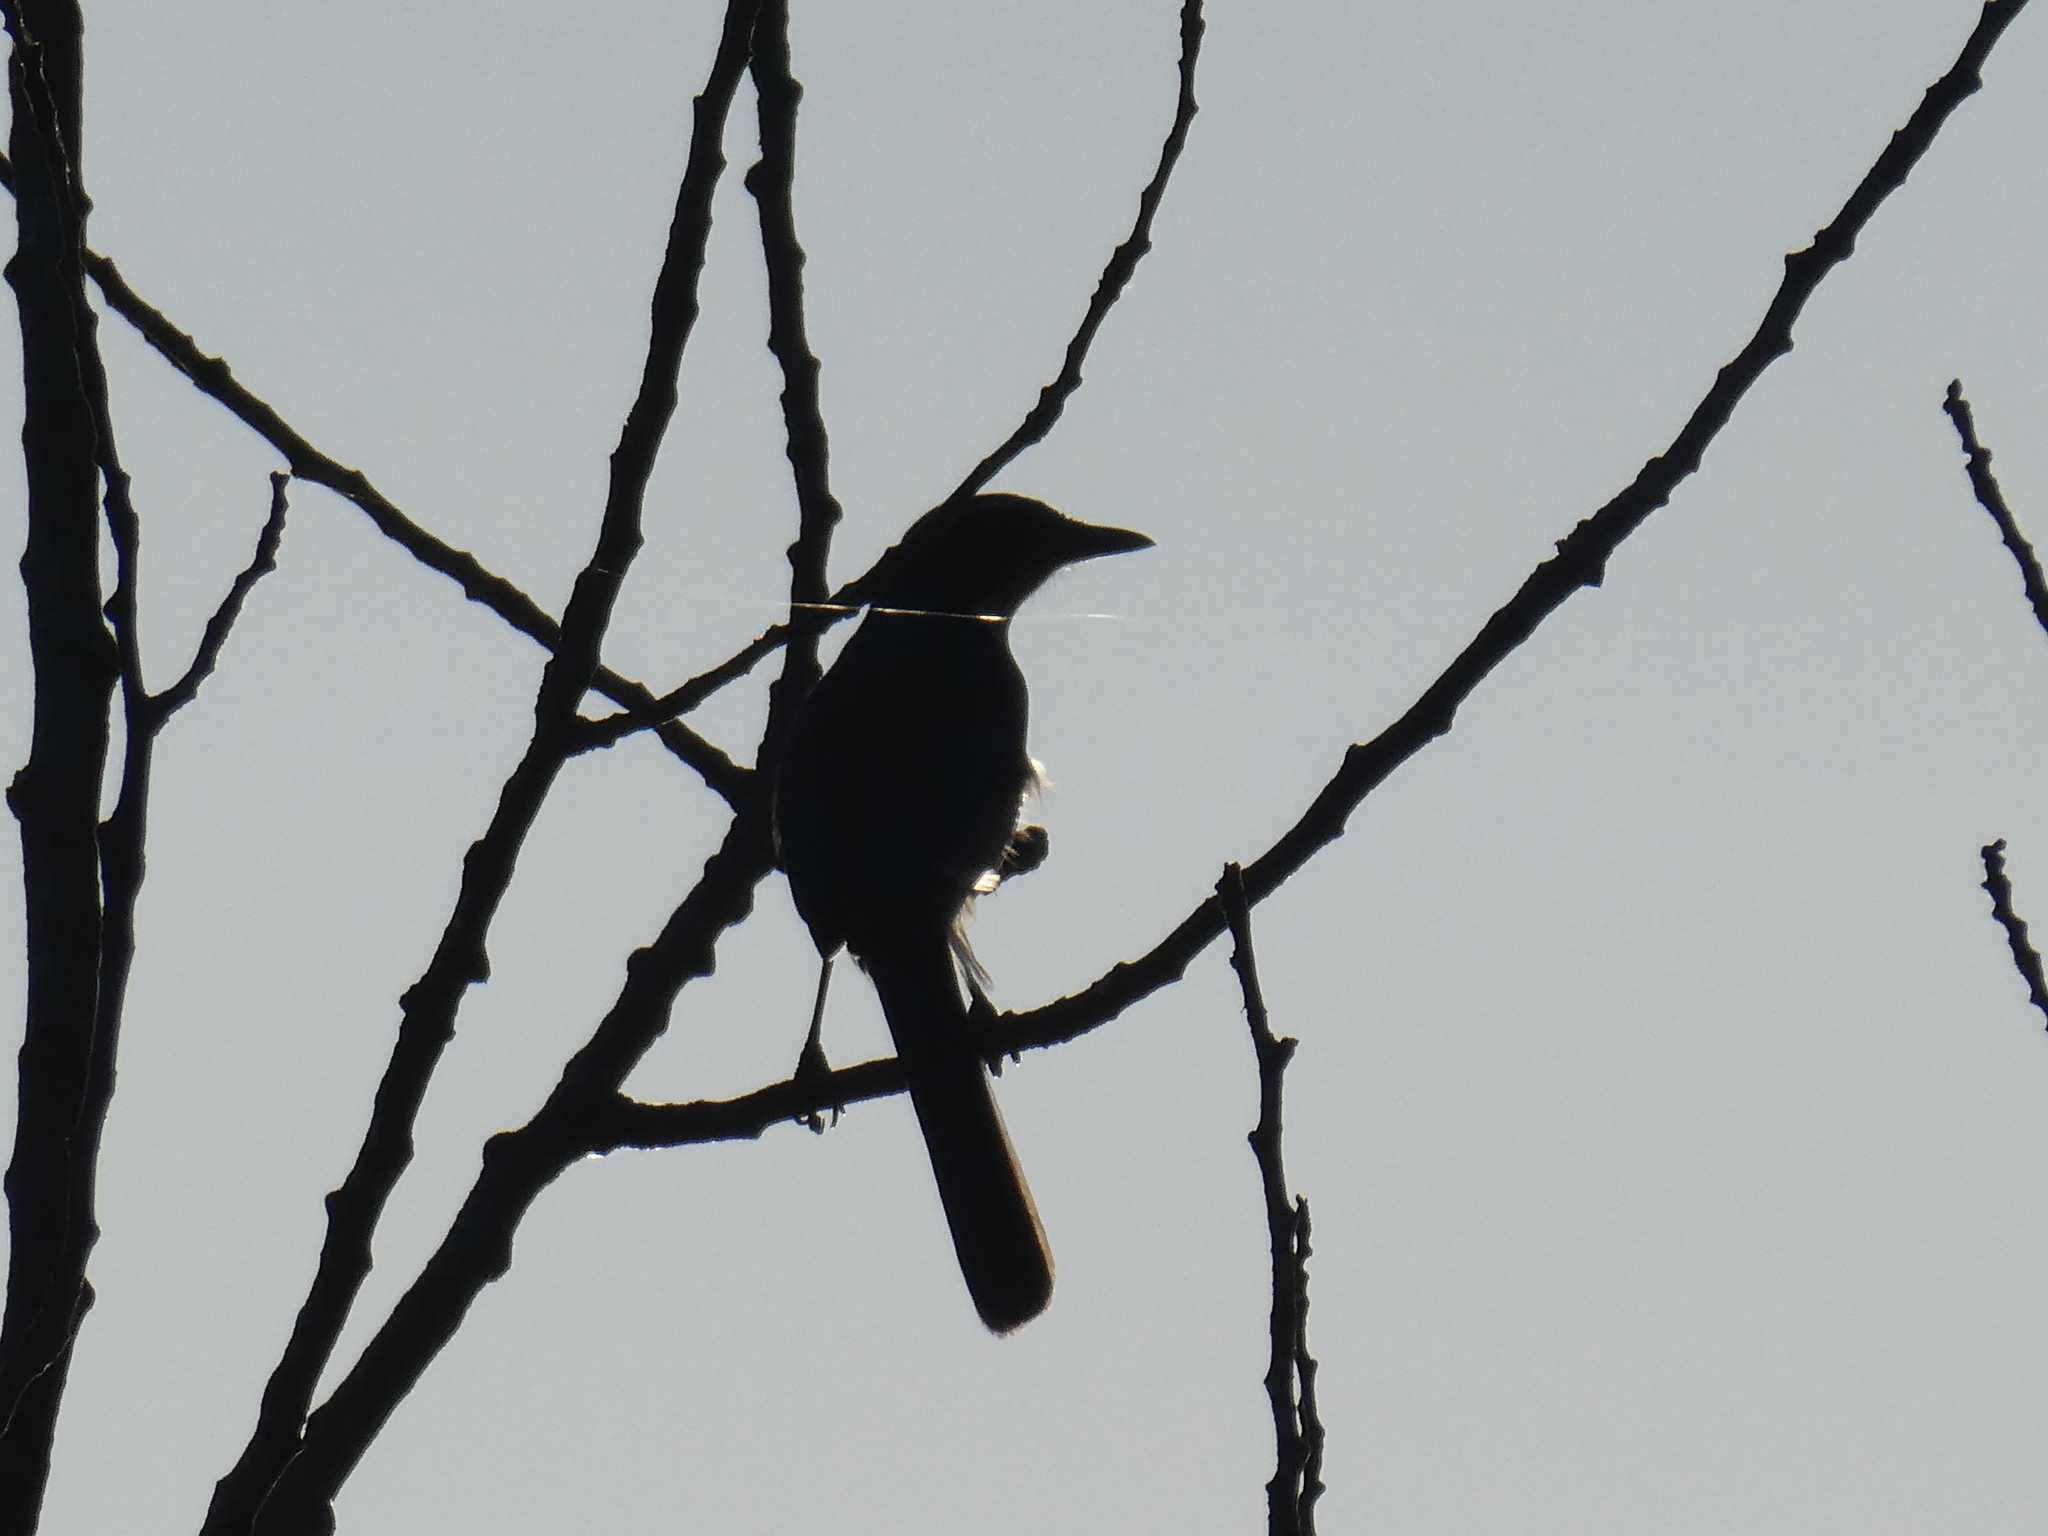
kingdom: Animalia
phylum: Chordata
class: Aves
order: Passeriformes
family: Corvidae
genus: Aphelocoma
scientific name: Aphelocoma californica
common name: California scrub-jay
